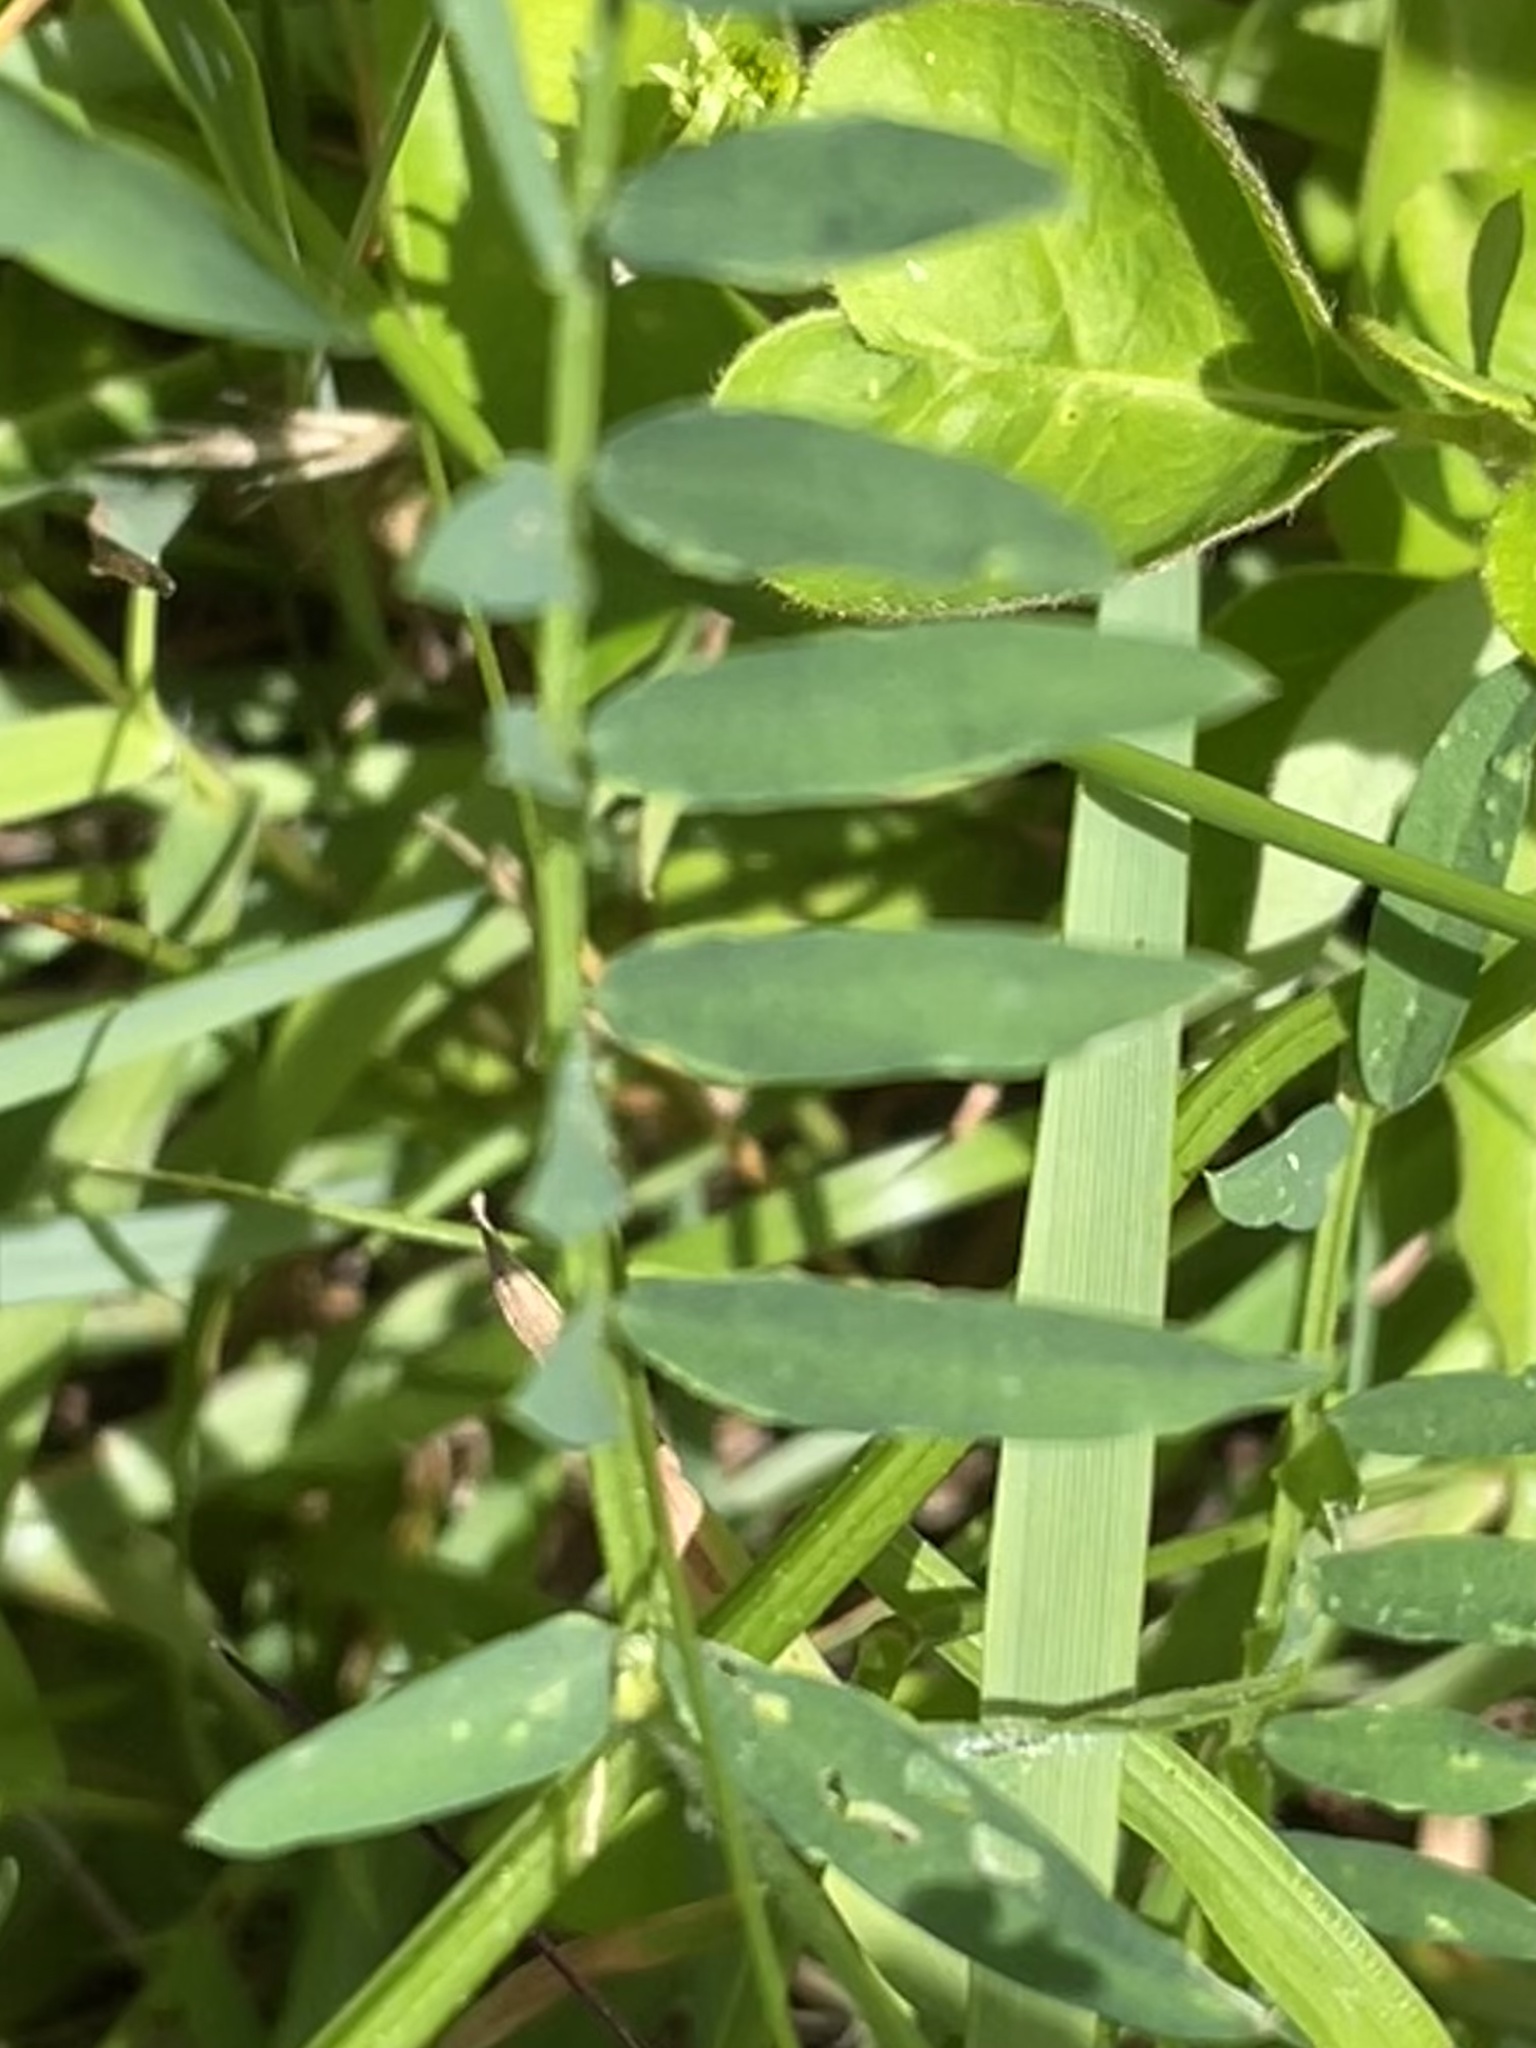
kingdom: Plantae
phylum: Tracheophyta
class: Magnoliopsida
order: Fabales
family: Fabaceae
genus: Vicia
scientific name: Vicia villosa
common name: Fodder vetch
